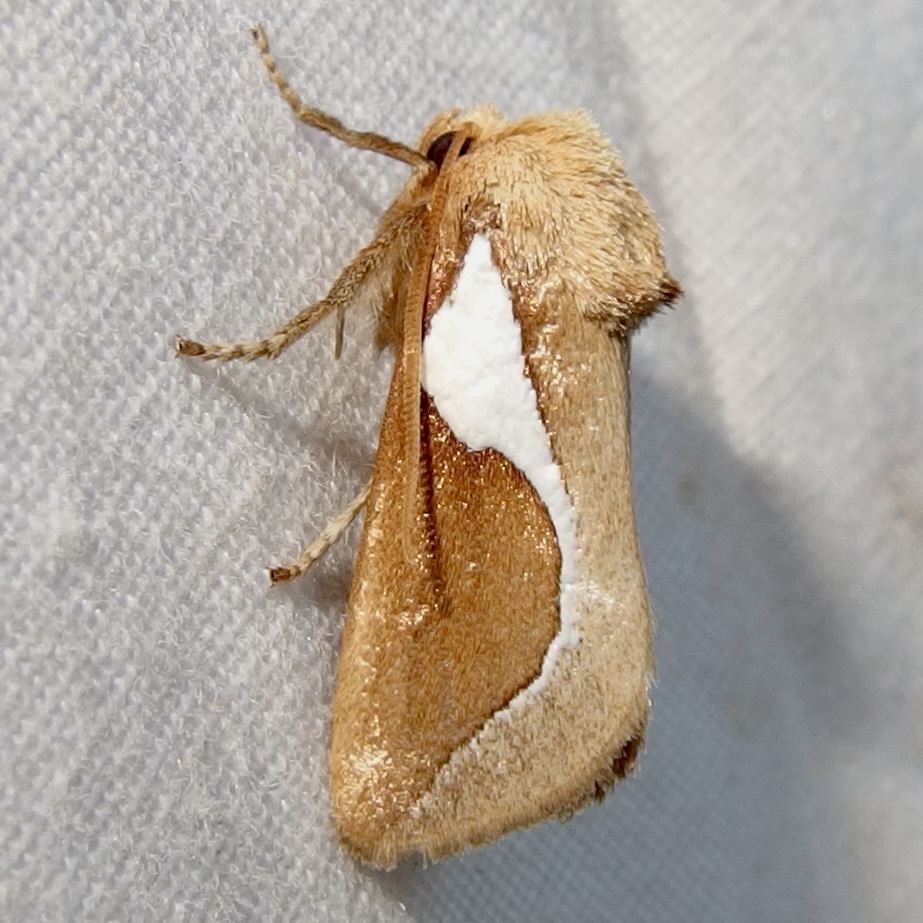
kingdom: Animalia
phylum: Arthropoda
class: Insecta
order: Lepidoptera
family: Limacodidae
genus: Prolimacodes
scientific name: Prolimacodes trigona
